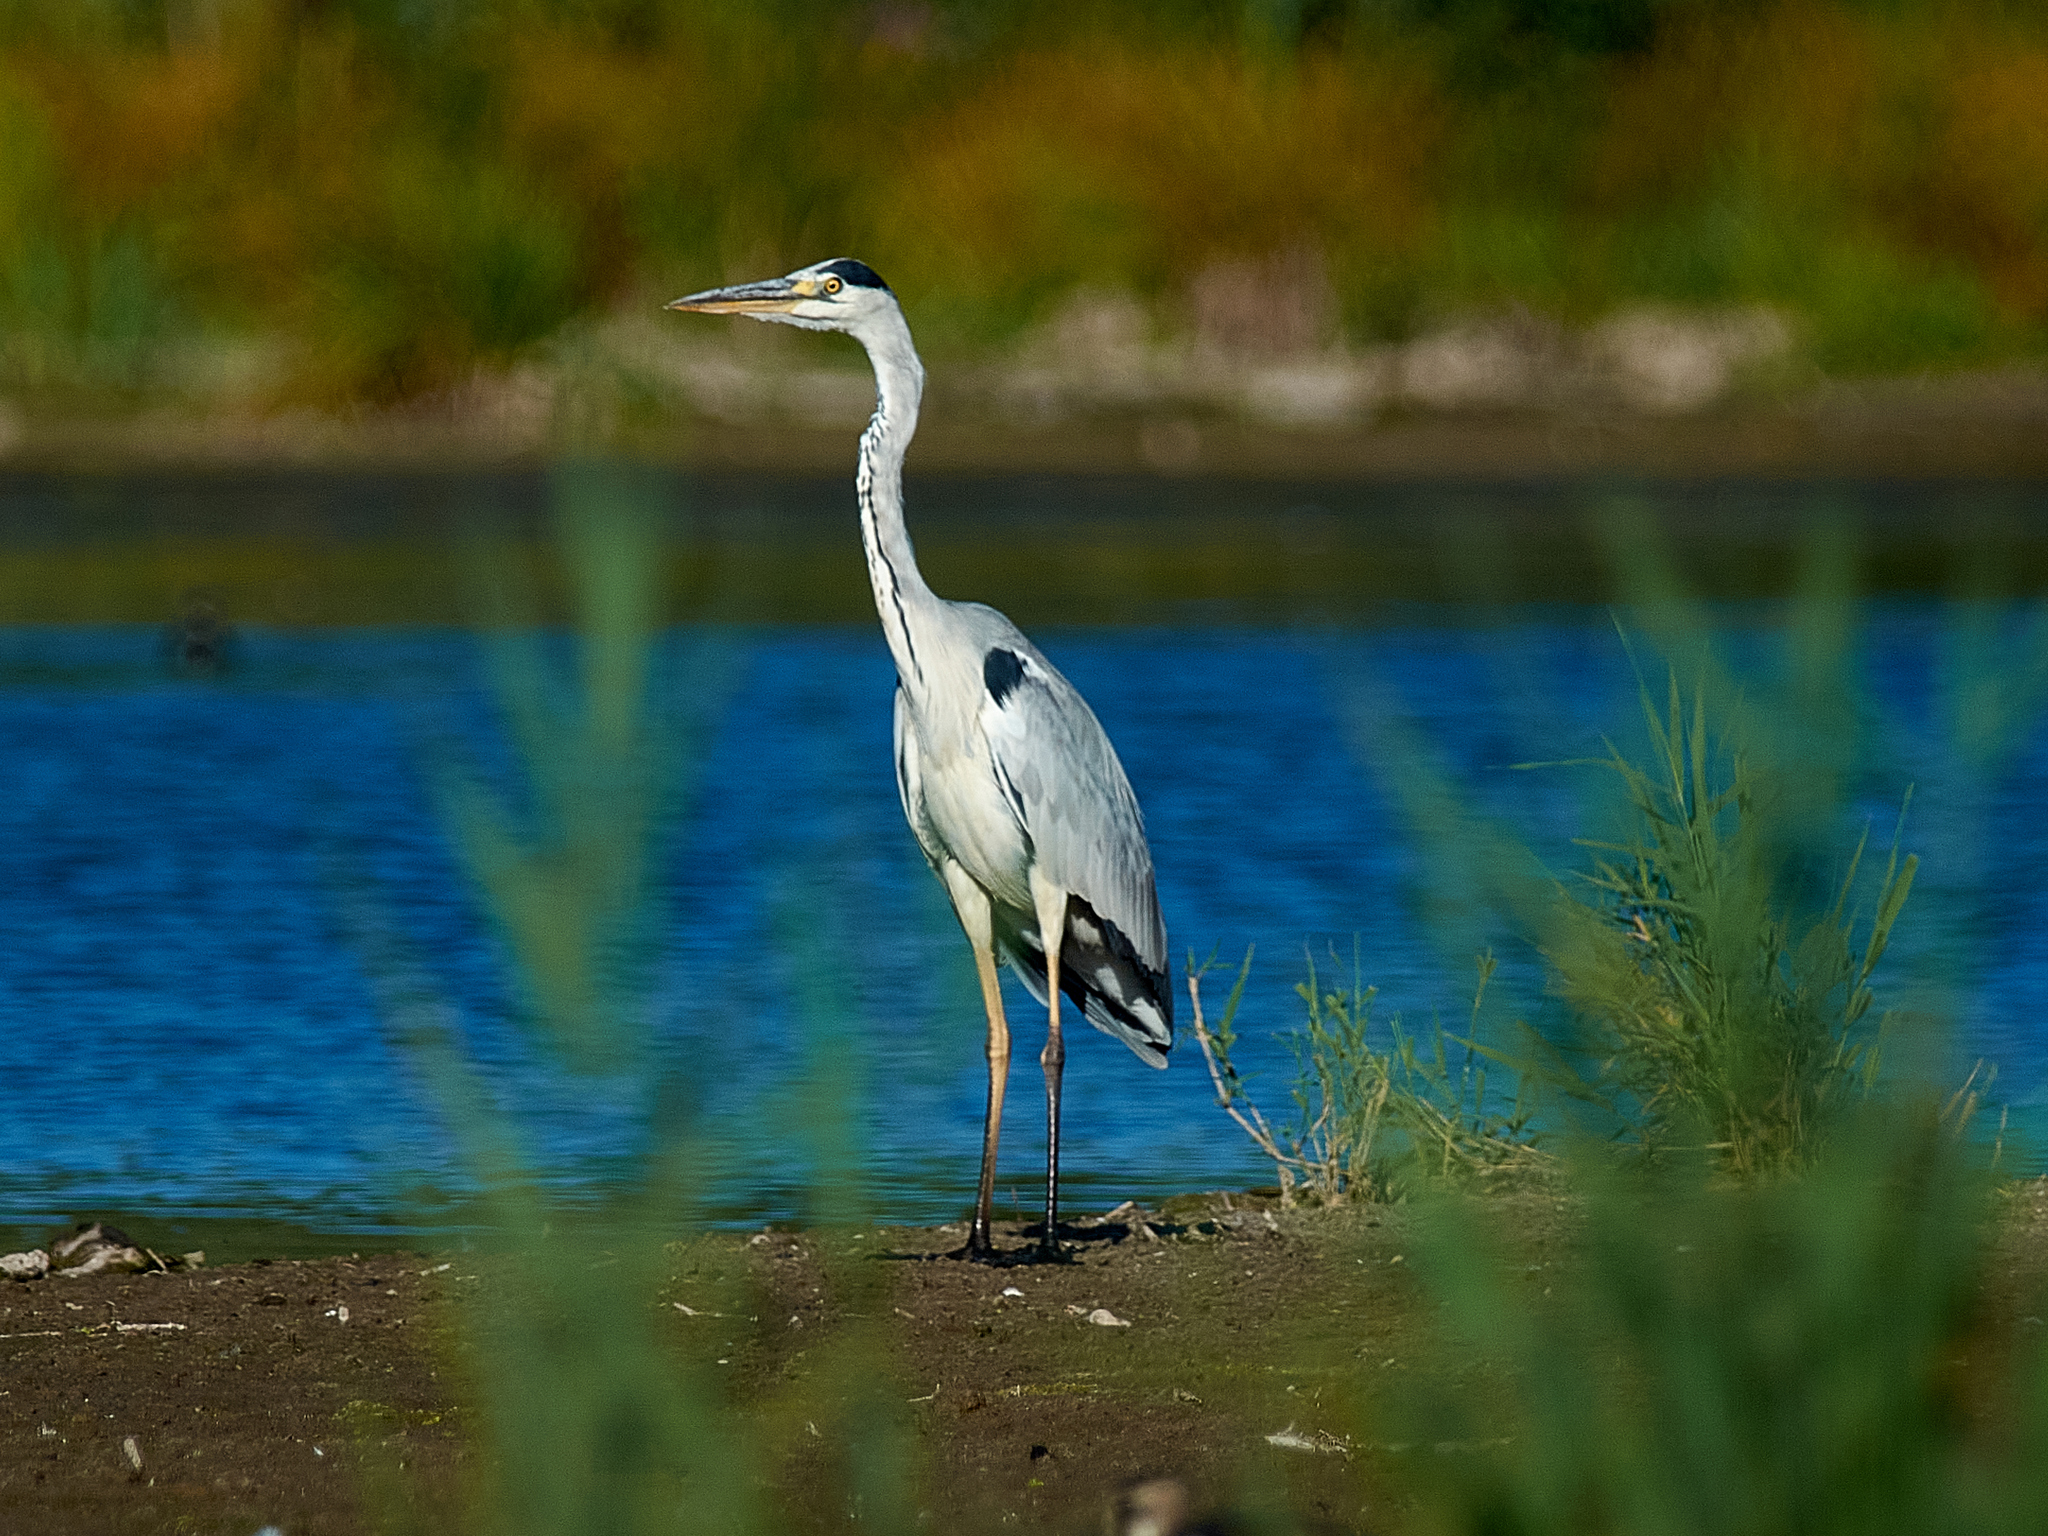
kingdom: Animalia
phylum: Chordata
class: Aves
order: Pelecaniformes
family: Ardeidae
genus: Ardea
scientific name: Ardea cinerea
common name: Grey heron
